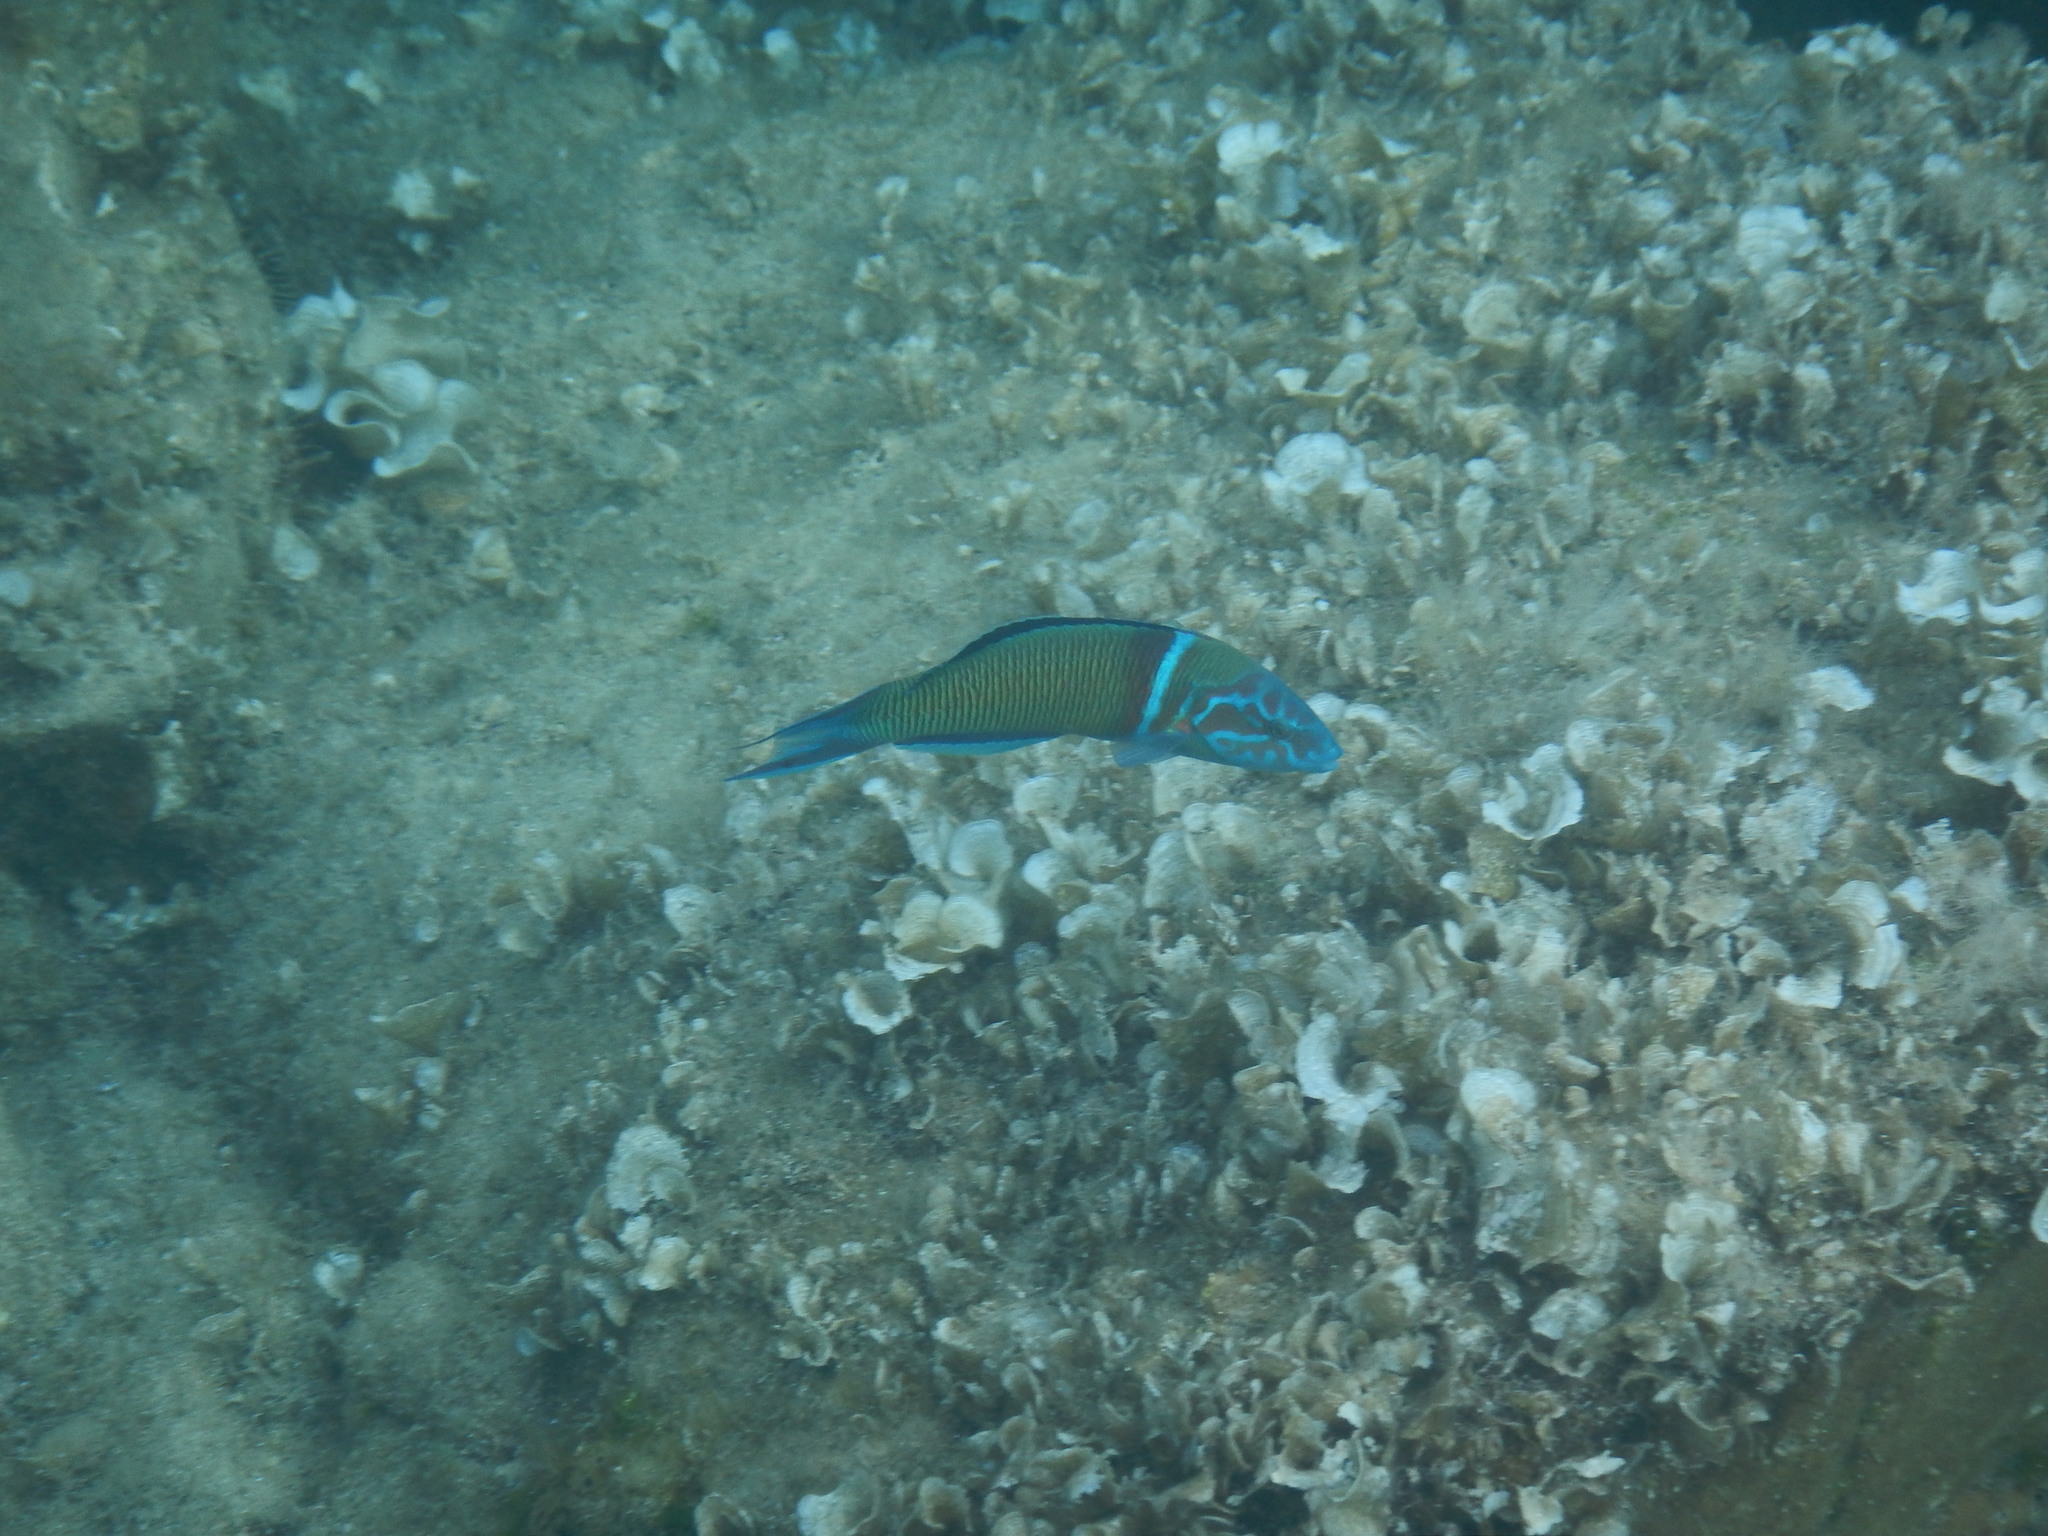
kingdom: Animalia
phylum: Chordata
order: Perciformes
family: Labridae
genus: Thalassoma
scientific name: Thalassoma pavo
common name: Ornate wrasse
